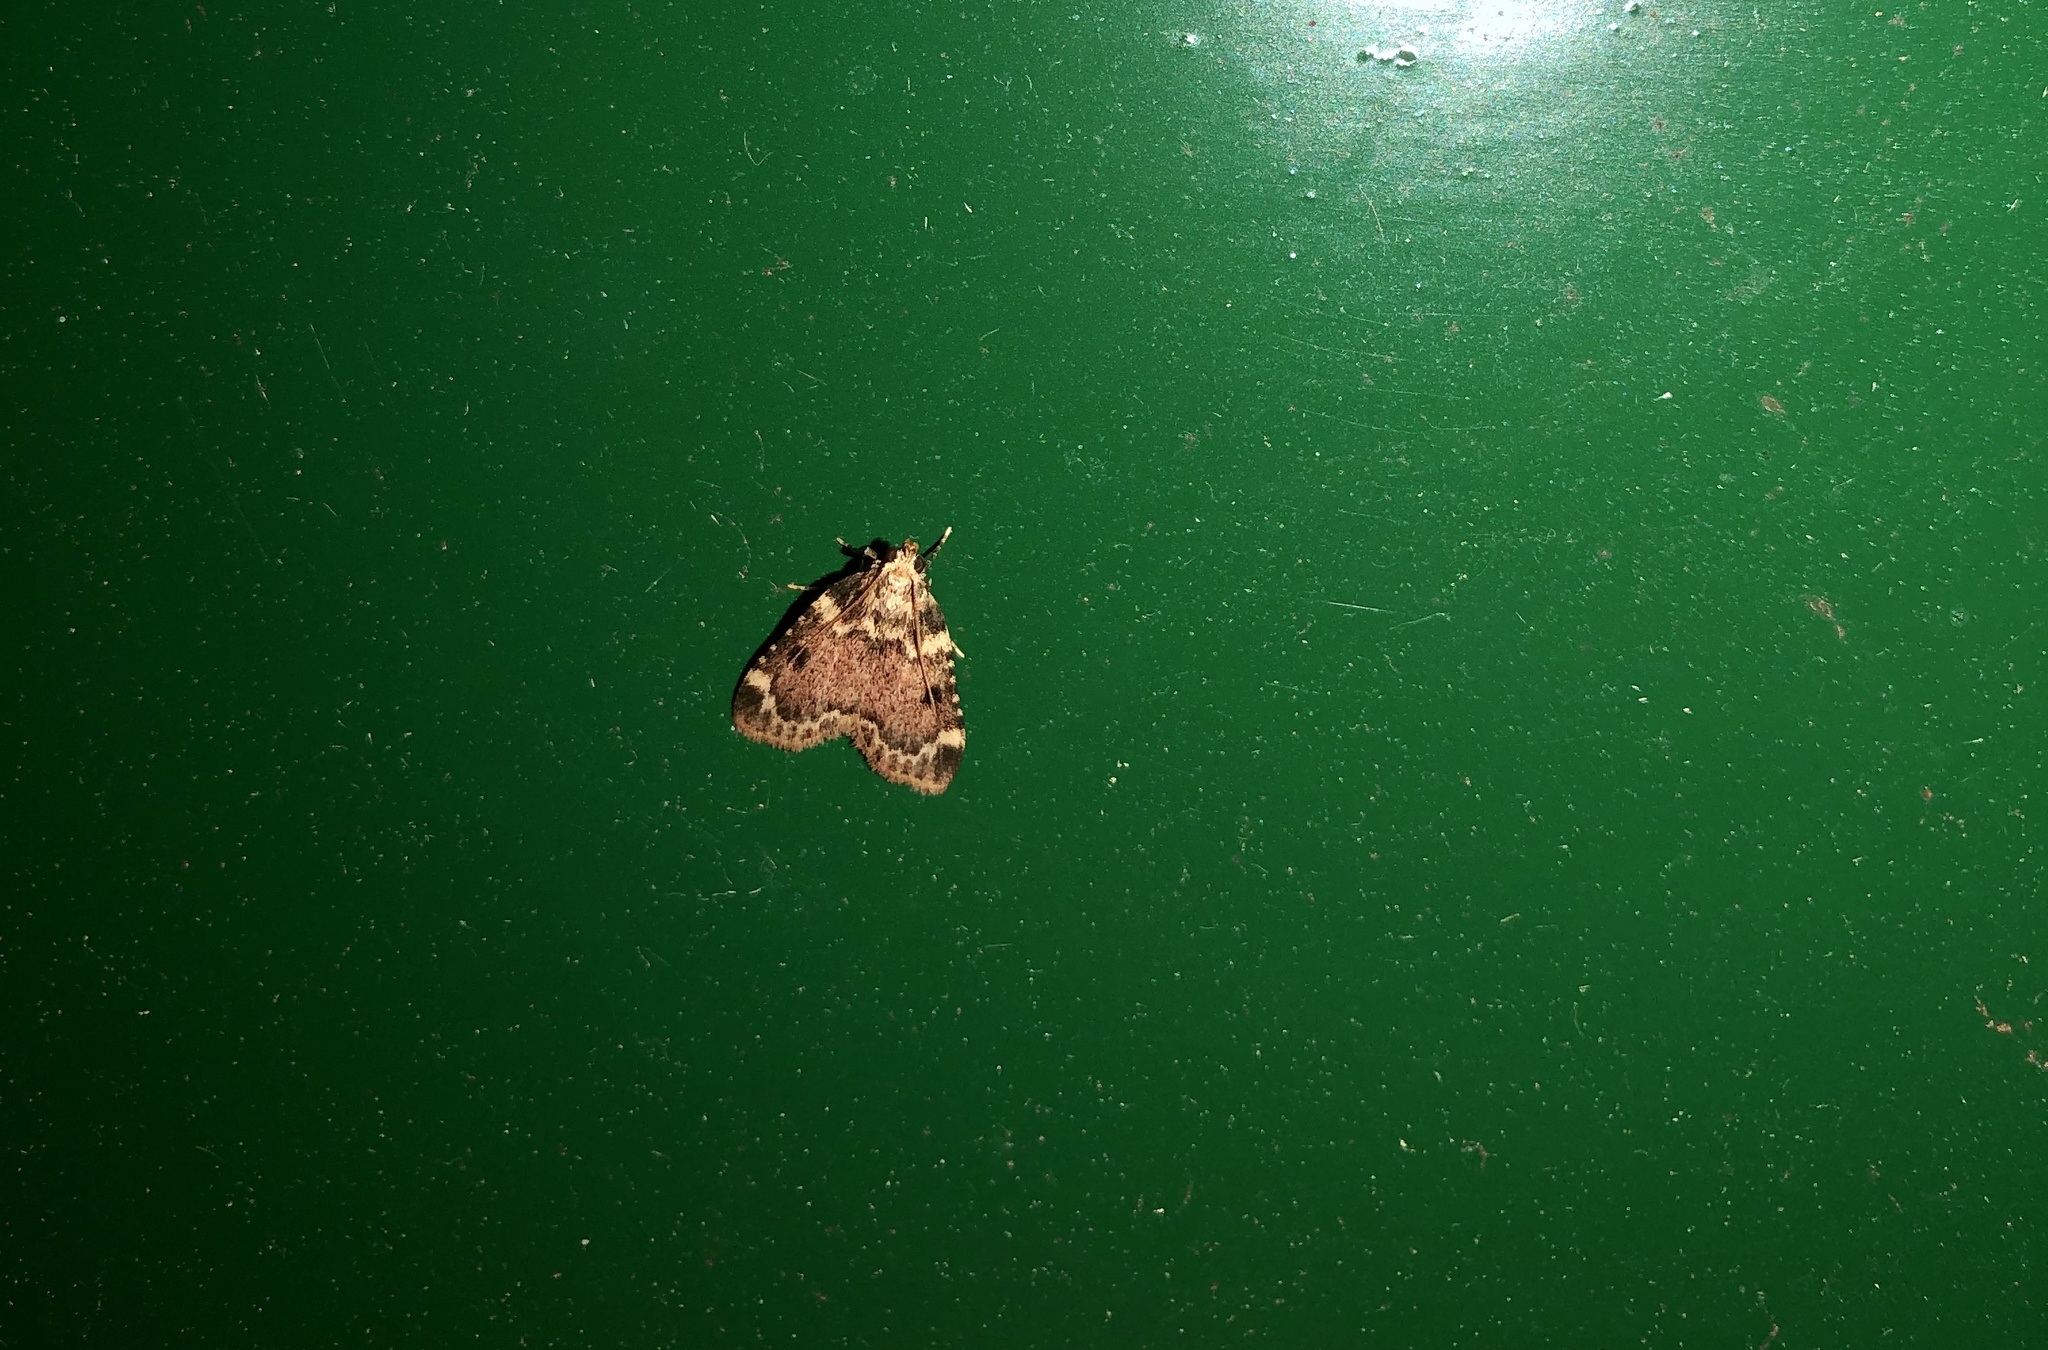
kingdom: Animalia
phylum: Arthropoda
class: Insecta
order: Lepidoptera
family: Pyralidae
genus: Aglossa
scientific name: Aglossa costiferalis
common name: Calico pyralid moth
